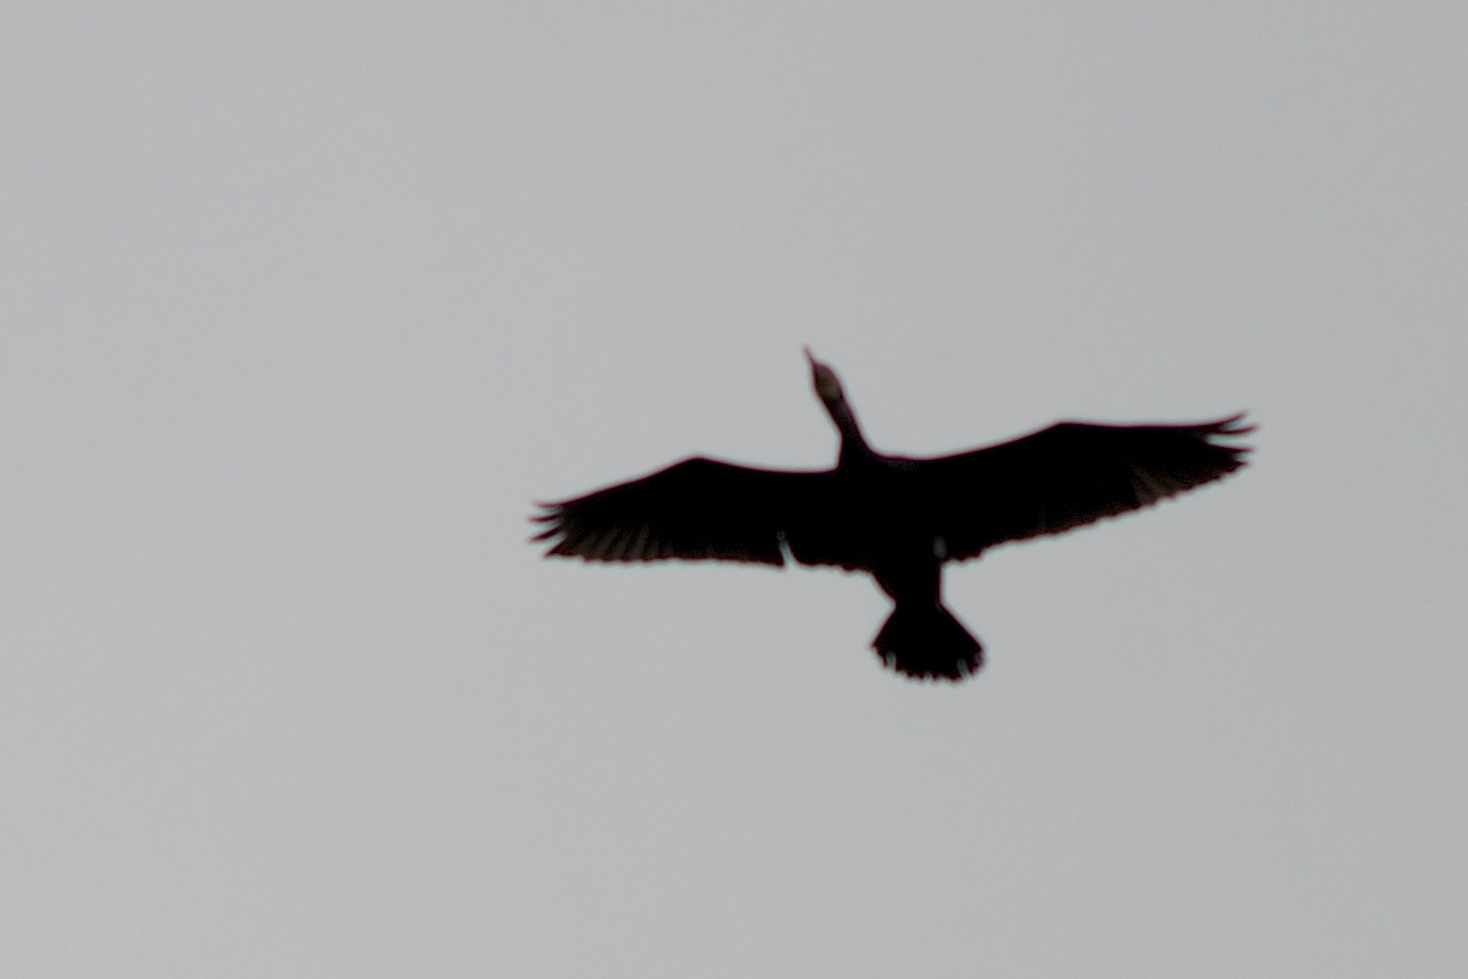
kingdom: Animalia
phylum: Chordata
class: Aves
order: Suliformes
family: Phalacrocoracidae
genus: Phalacrocorax
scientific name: Phalacrocorax carbo
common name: Great cormorant
